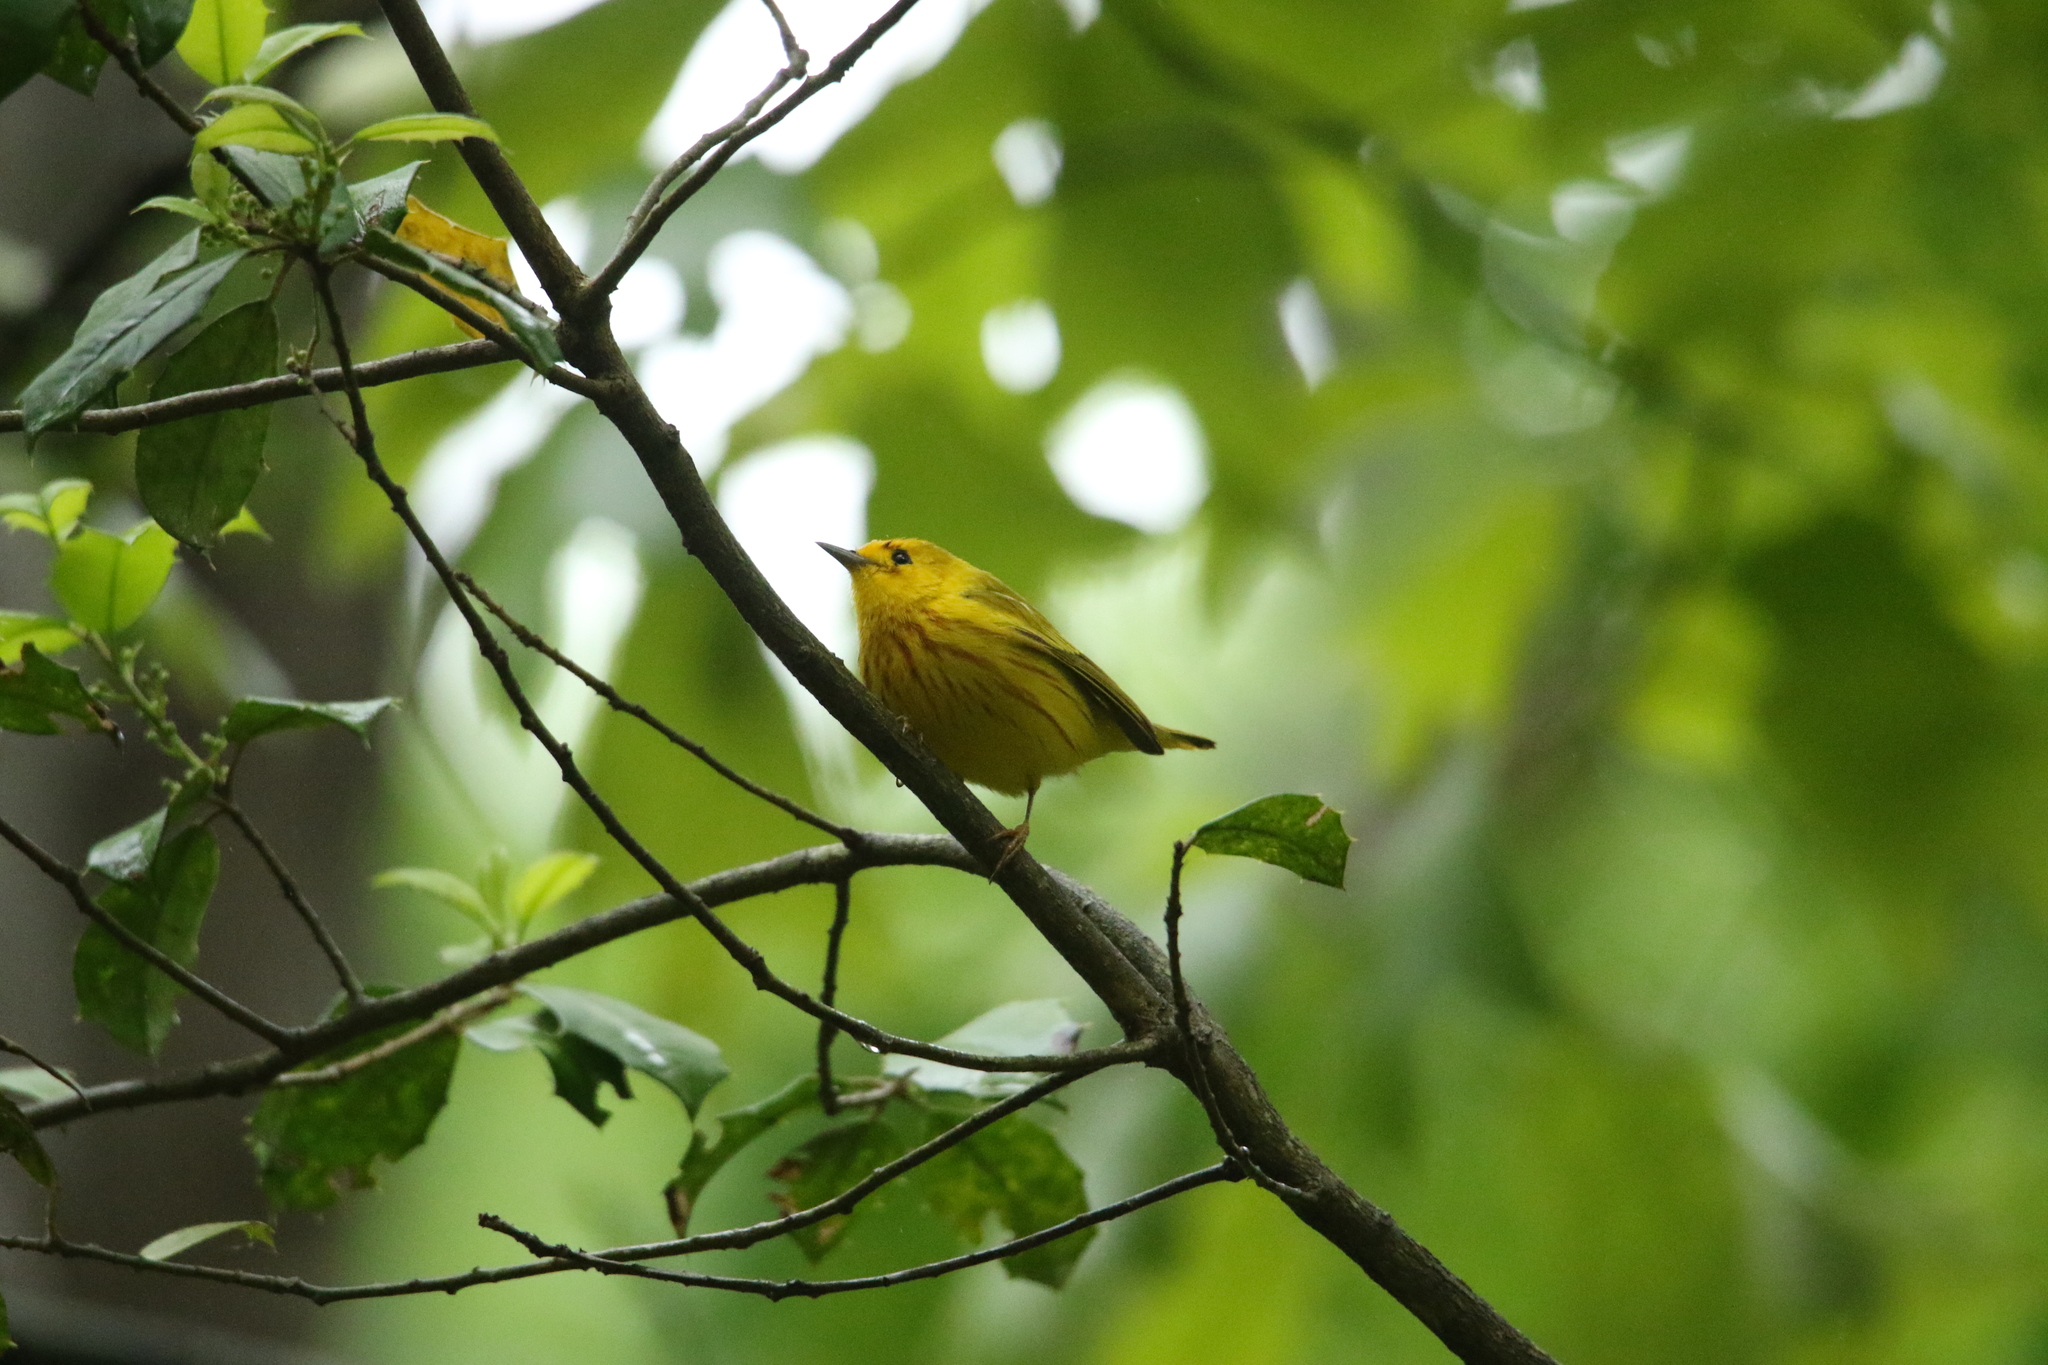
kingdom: Animalia
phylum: Chordata
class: Aves
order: Passeriformes
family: Parulidae
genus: Setophaga
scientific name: Setophaga petechia
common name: Yellow warbler
